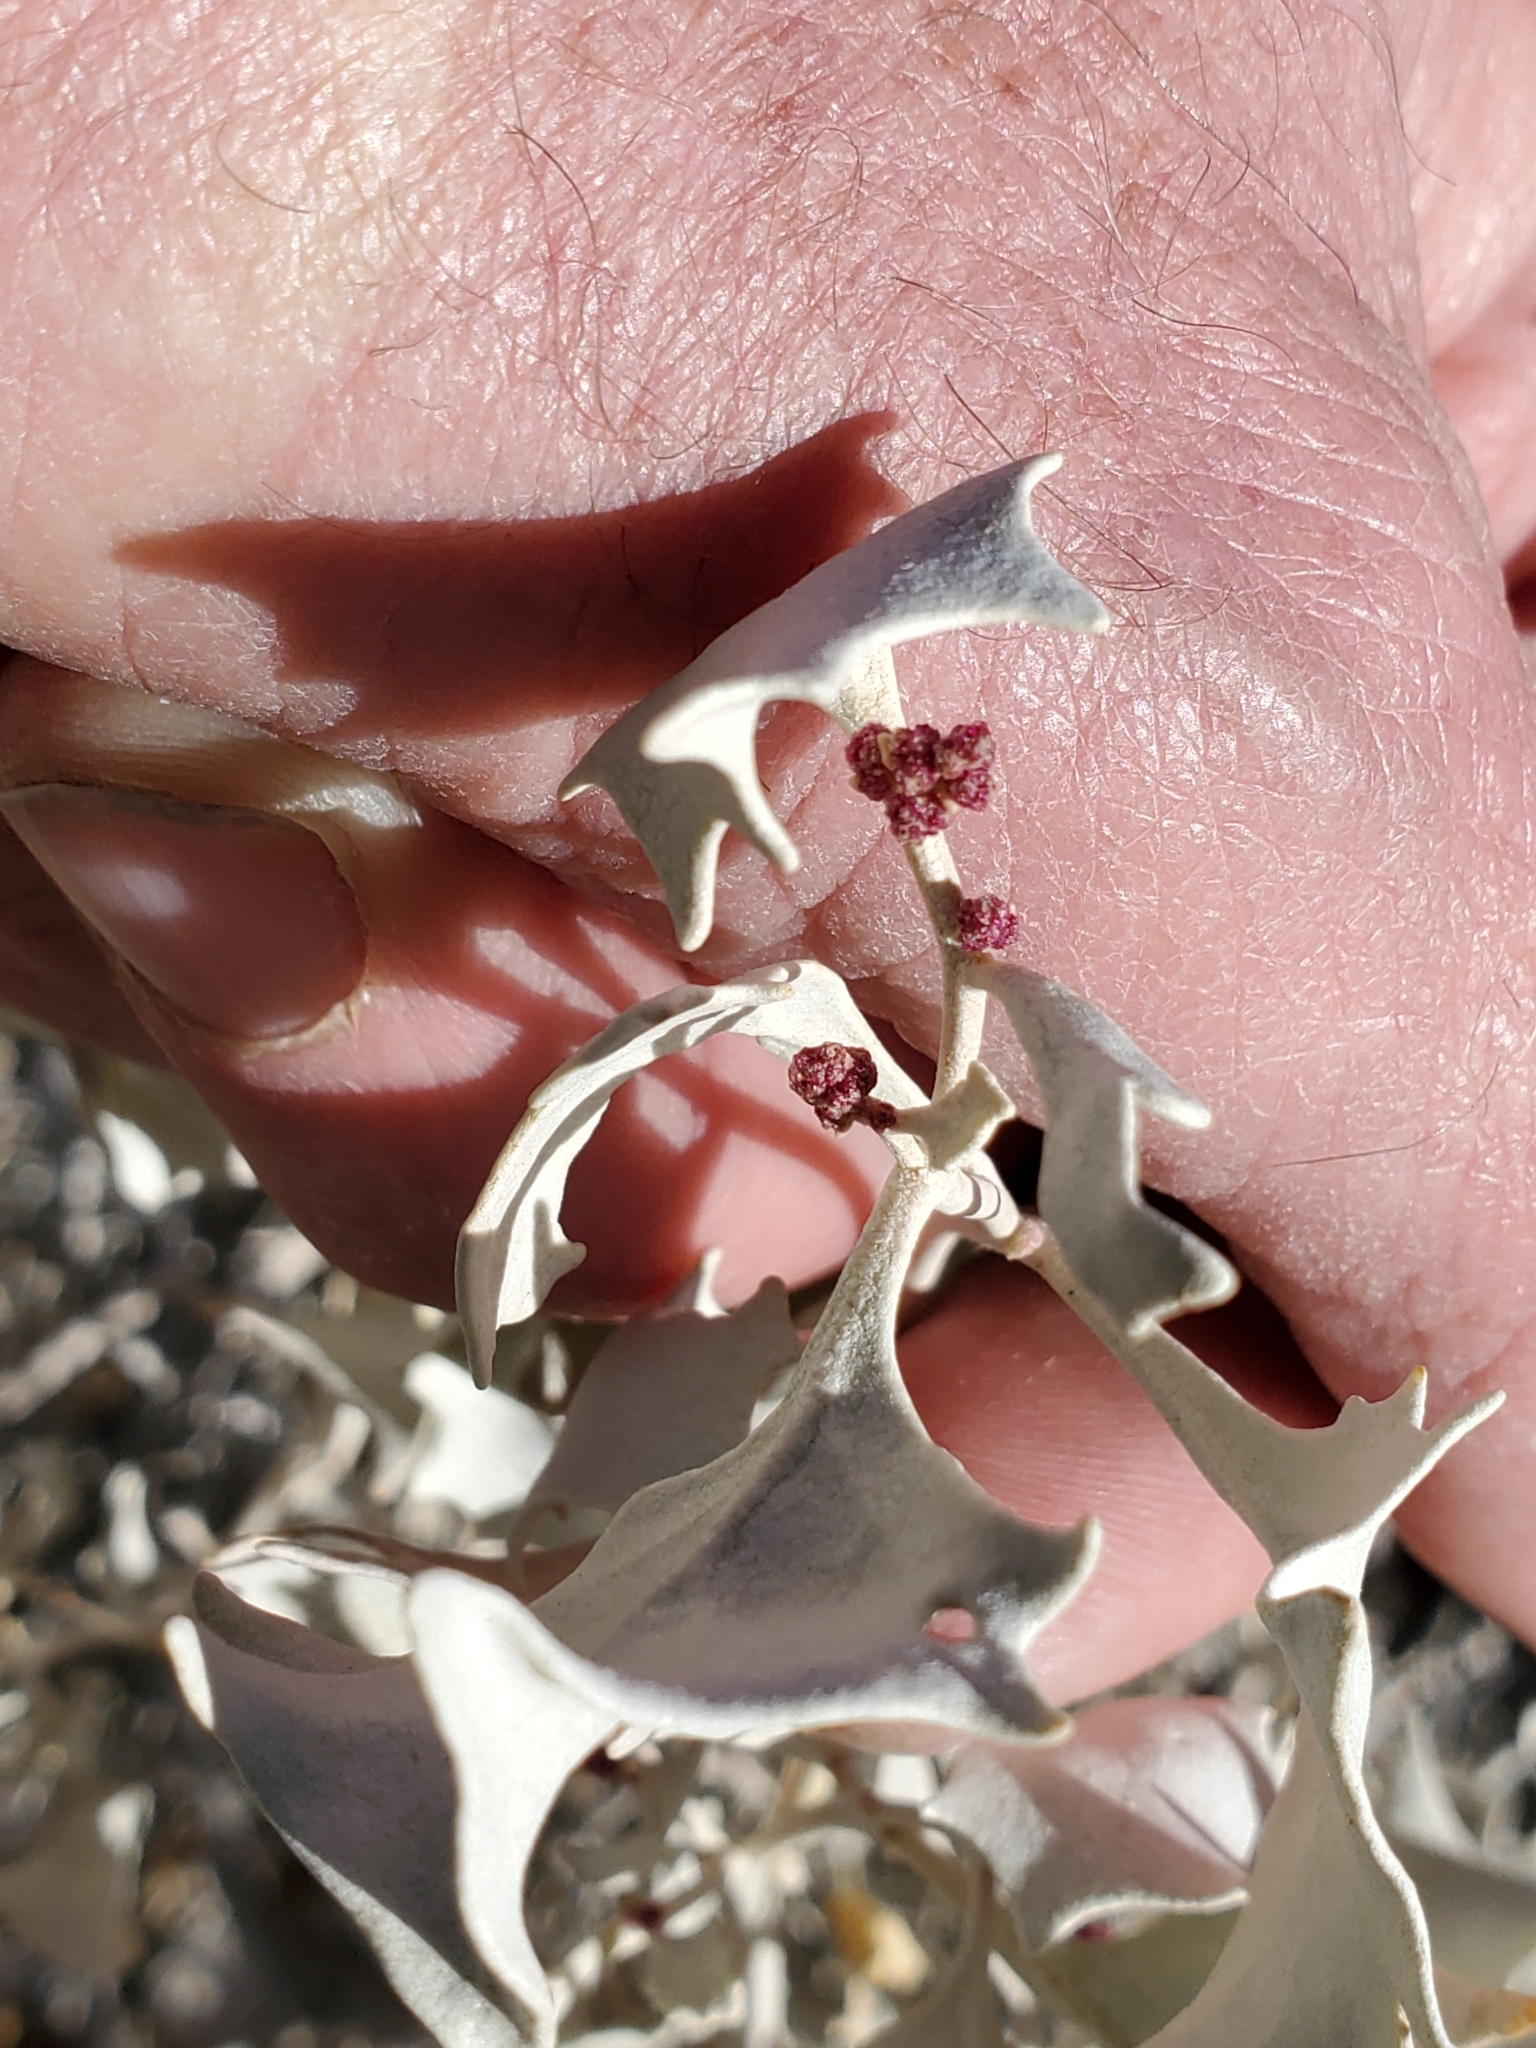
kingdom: Plantae
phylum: Tracheophyta
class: Magnoliopsida
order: Caryophyllales
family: Amaranthaceae
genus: Atriplex
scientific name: Atriplex hymenelytra
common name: Desert-holly
